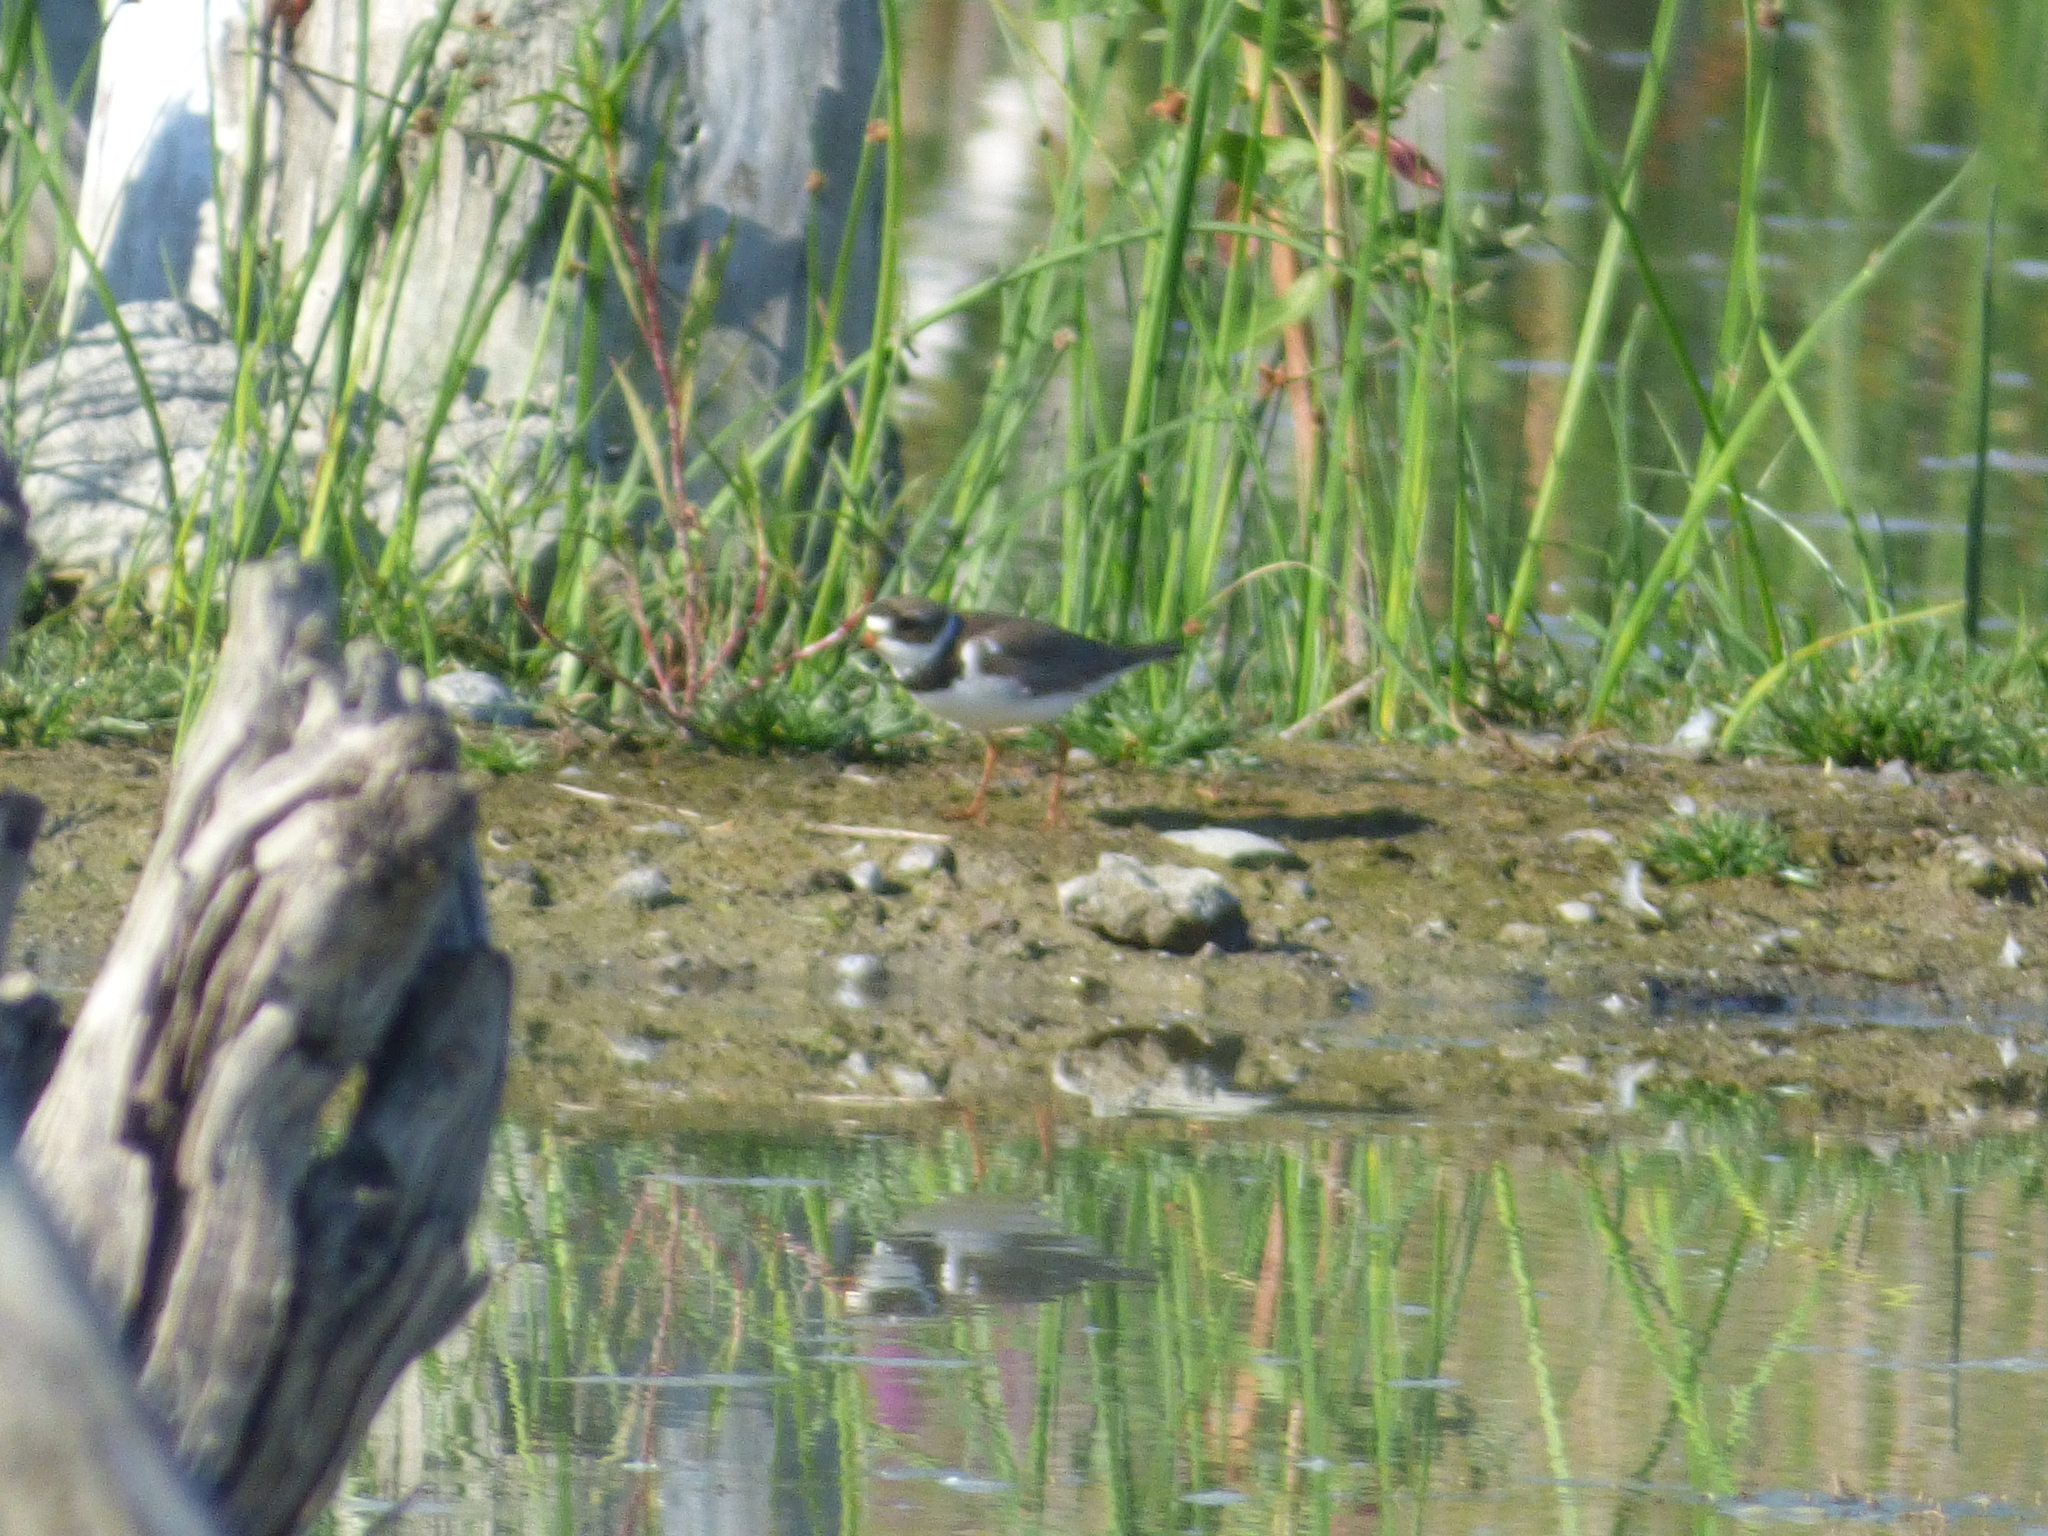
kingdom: Animalia
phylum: Chordata
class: Aves
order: Charadriiformes
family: Charadriidae
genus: Charadrius
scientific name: Charadrius semipalmatus
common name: Semipalmated plover
